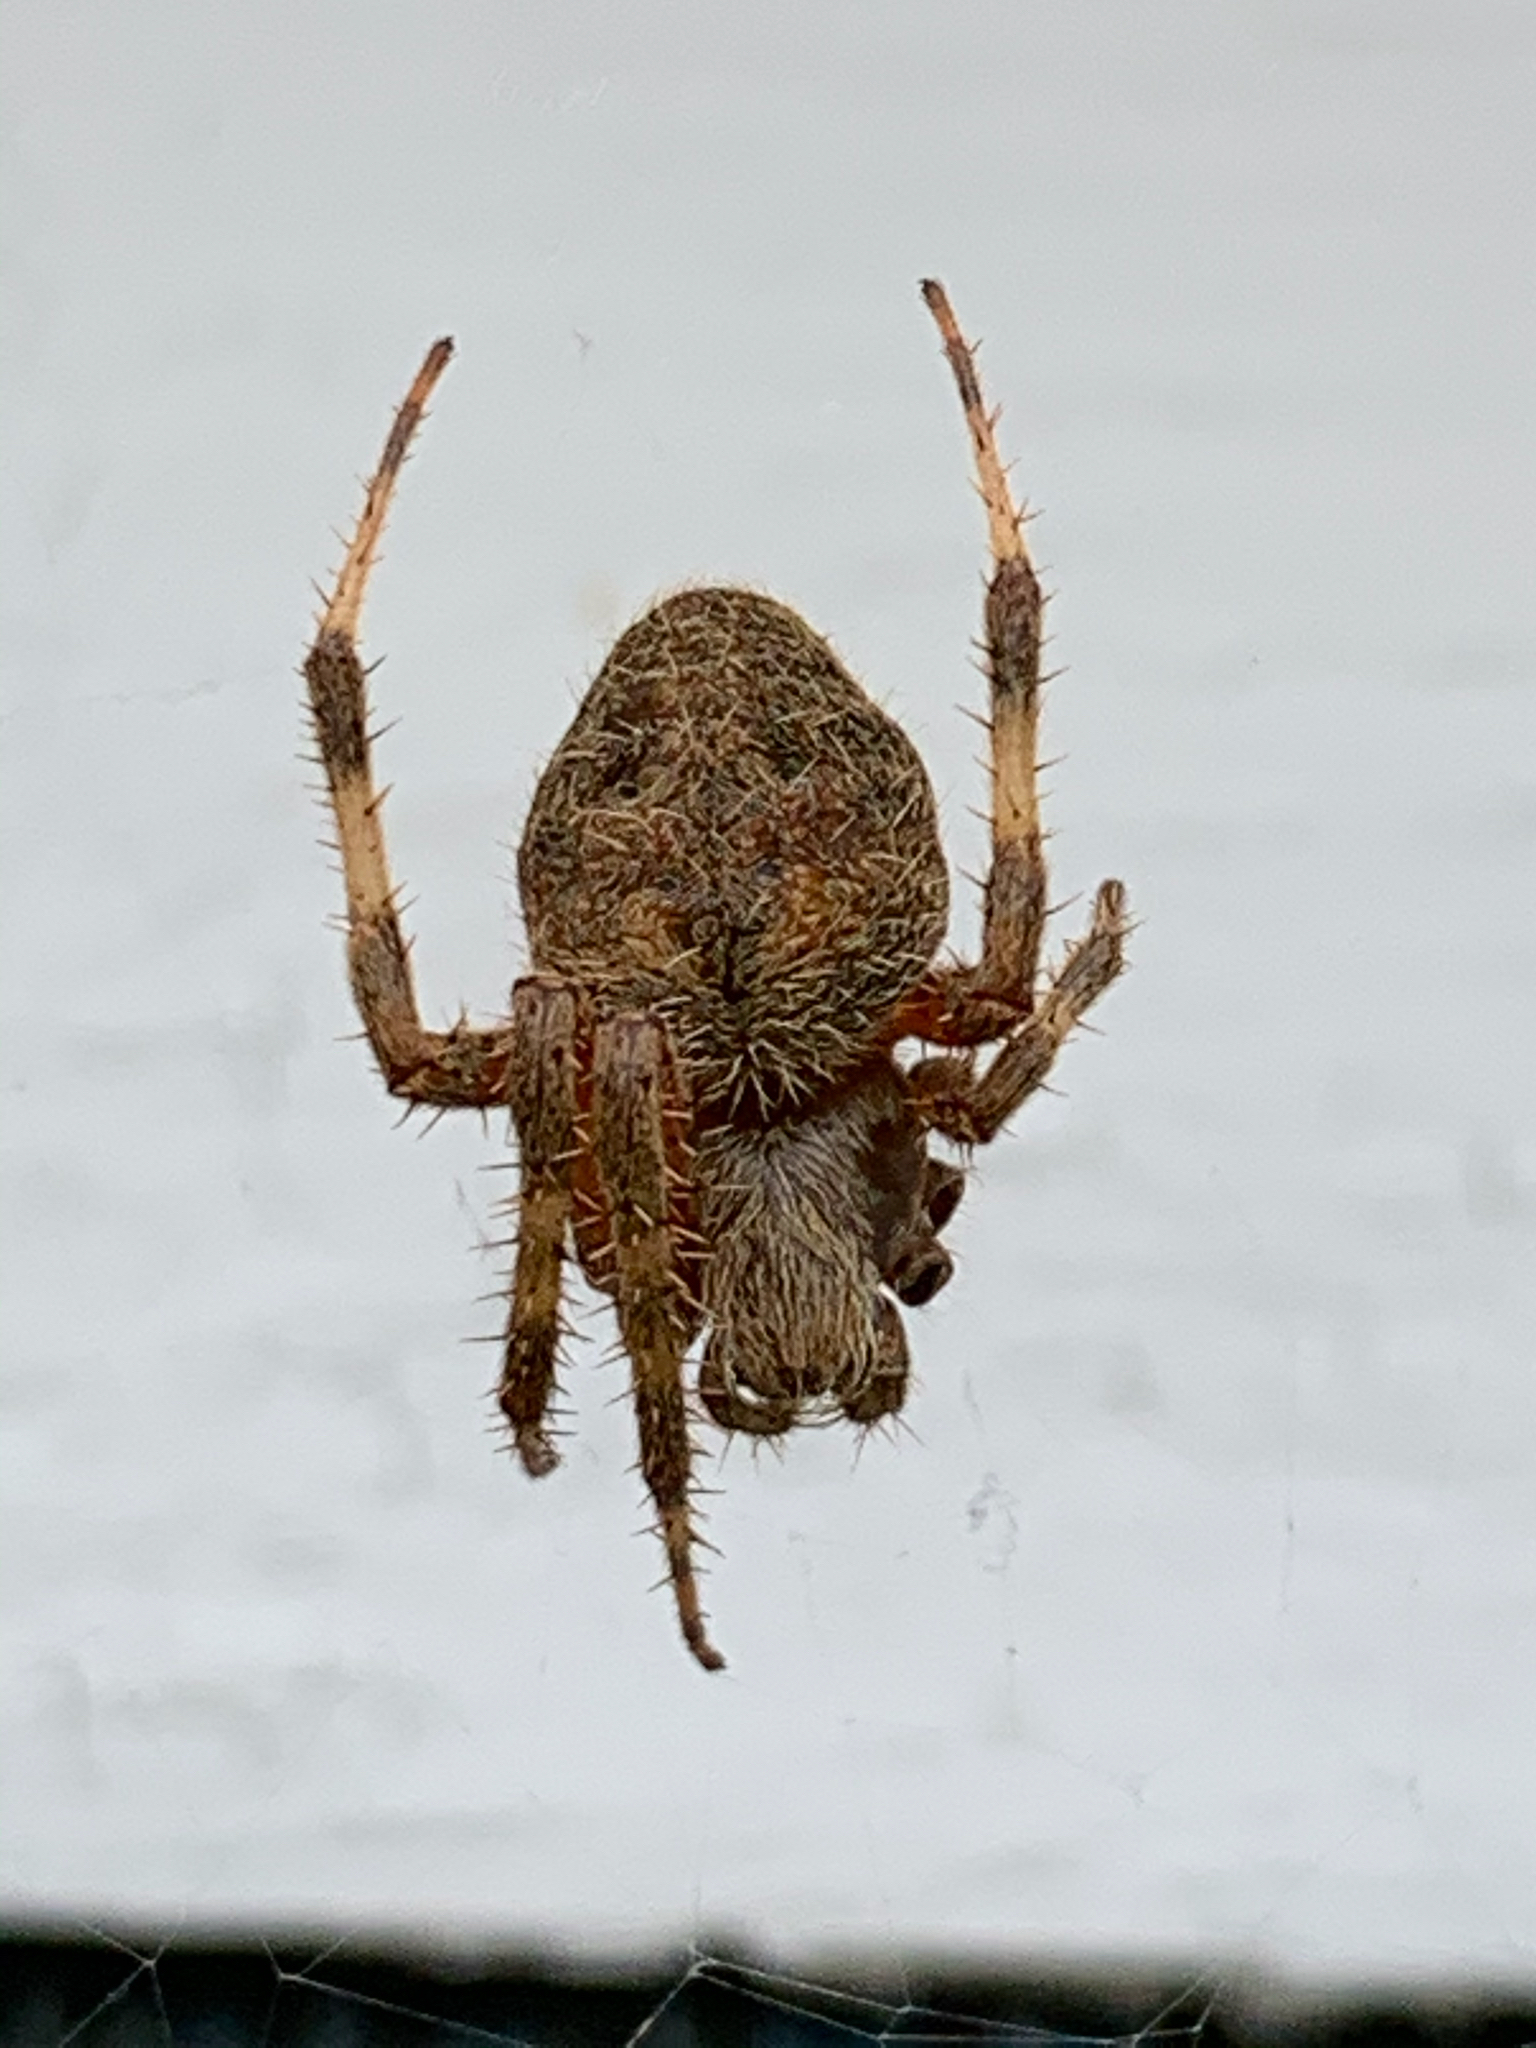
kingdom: Animalia
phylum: Arthropoda
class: Arachnida
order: Araneae
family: Araneidae
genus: Neoscona
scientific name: Neoscona crucifera
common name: Spotted orbweaver
